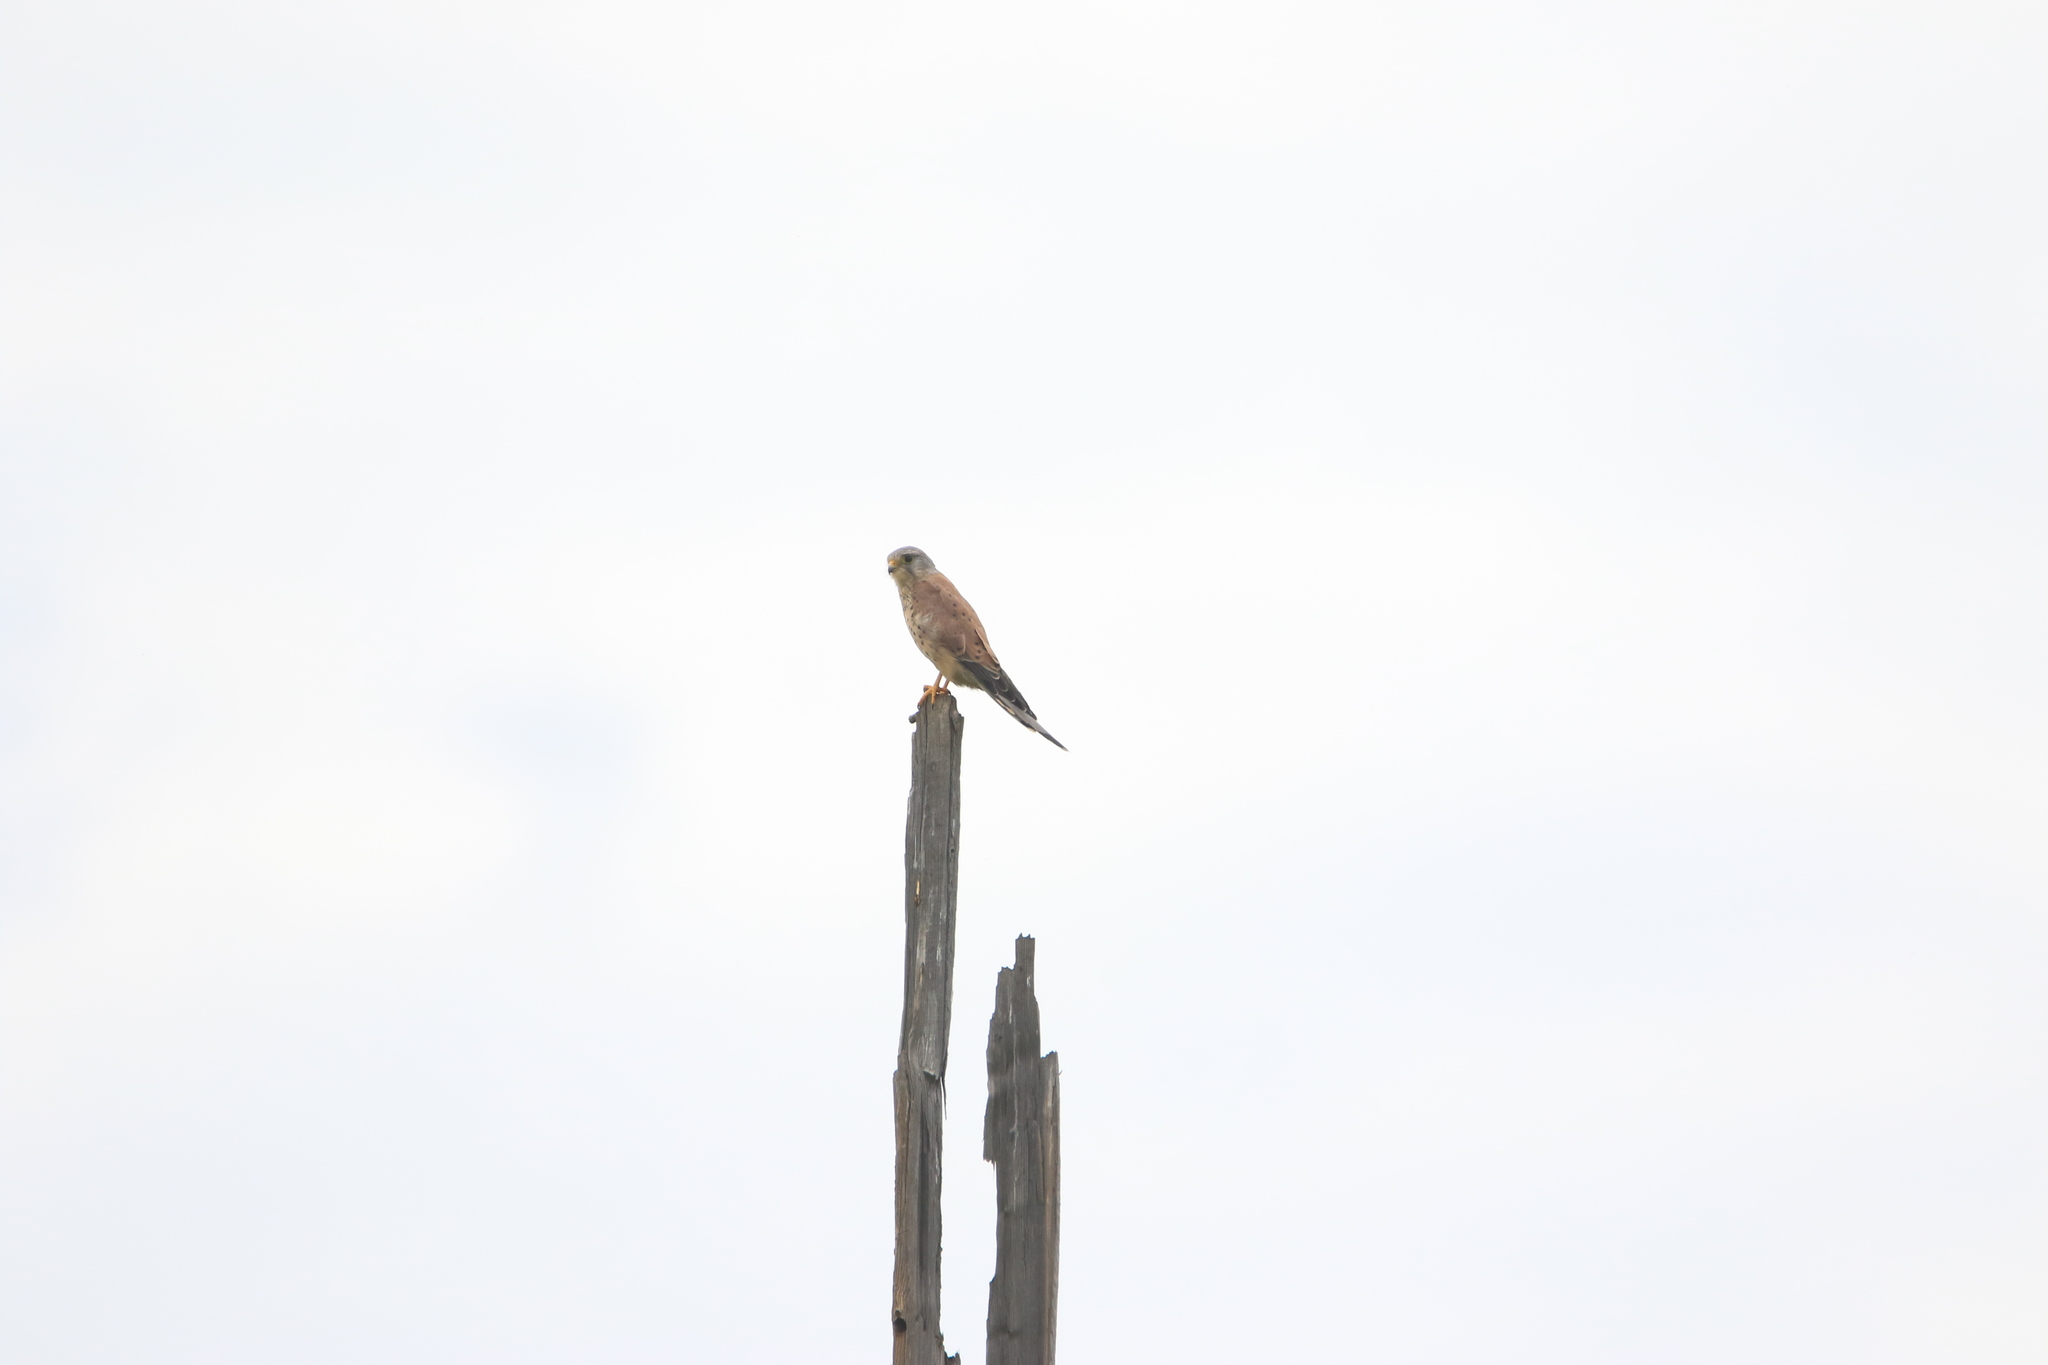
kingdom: Animalia
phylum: Chordata
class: Aves
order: Falconiformes
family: Falconidae
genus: Falco
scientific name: Falco tinnunculus
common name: Common kestrel
